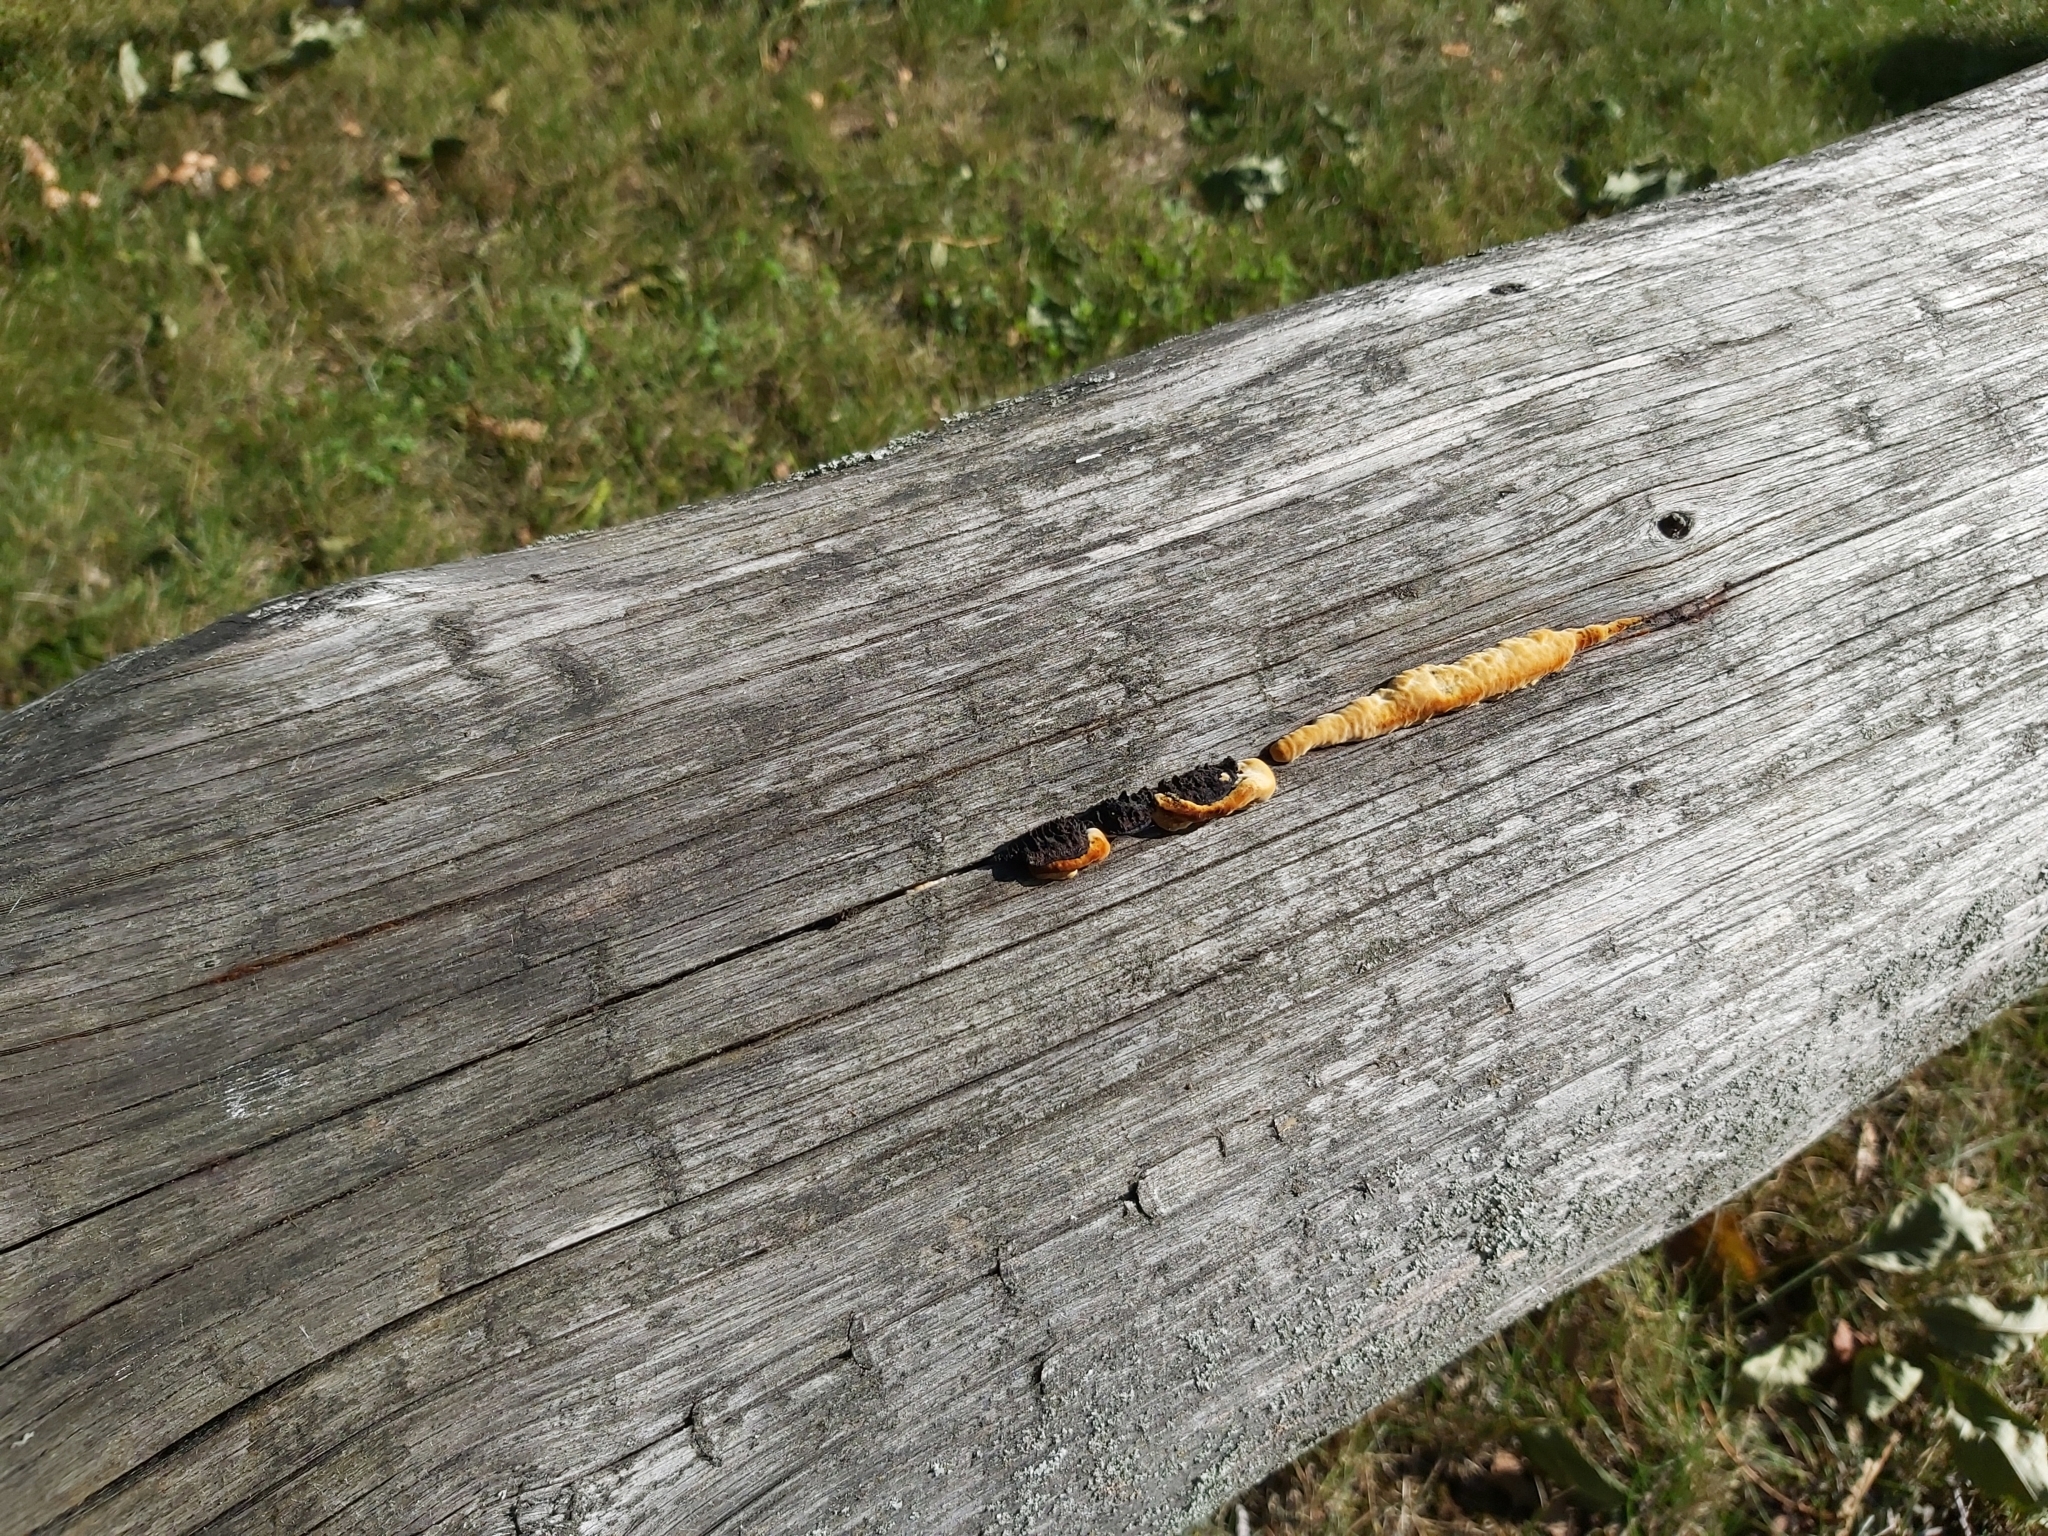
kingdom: Fungi
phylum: Basidiomycota
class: Agaricomycetes
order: Gloeophyllales
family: Gloeophyllaceae
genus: Gloeophyllum
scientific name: Gloeophyllum sepiarium
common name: Conifer mazegill
